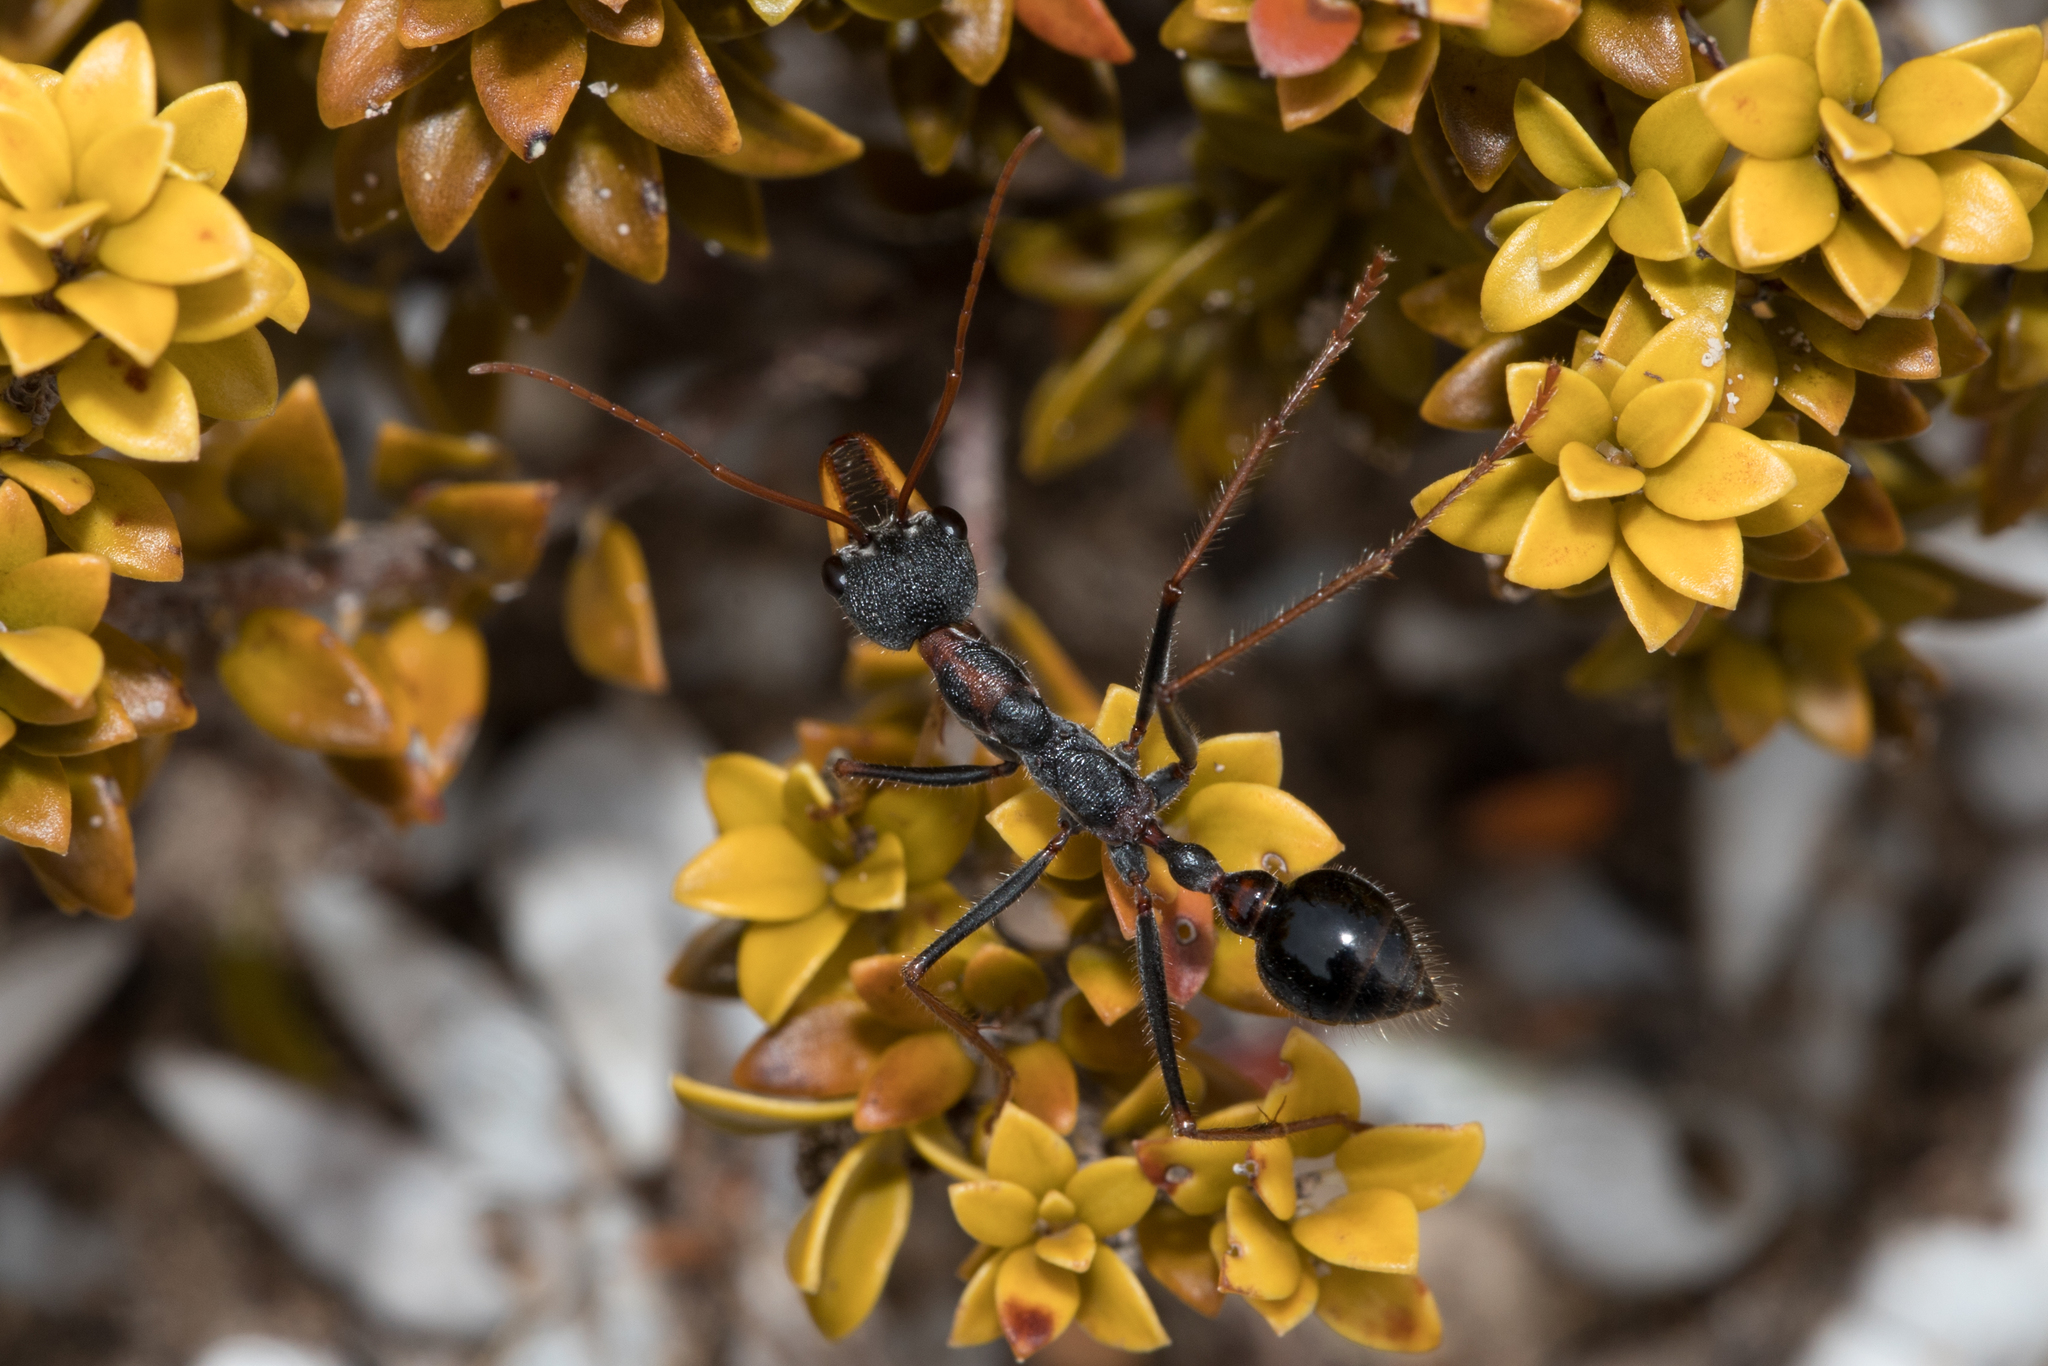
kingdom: Animalia
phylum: Arthropoda
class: Insecta
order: Hymenoptera
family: Formicidae
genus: Myrmecia
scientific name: Myrmecia arnoldi
